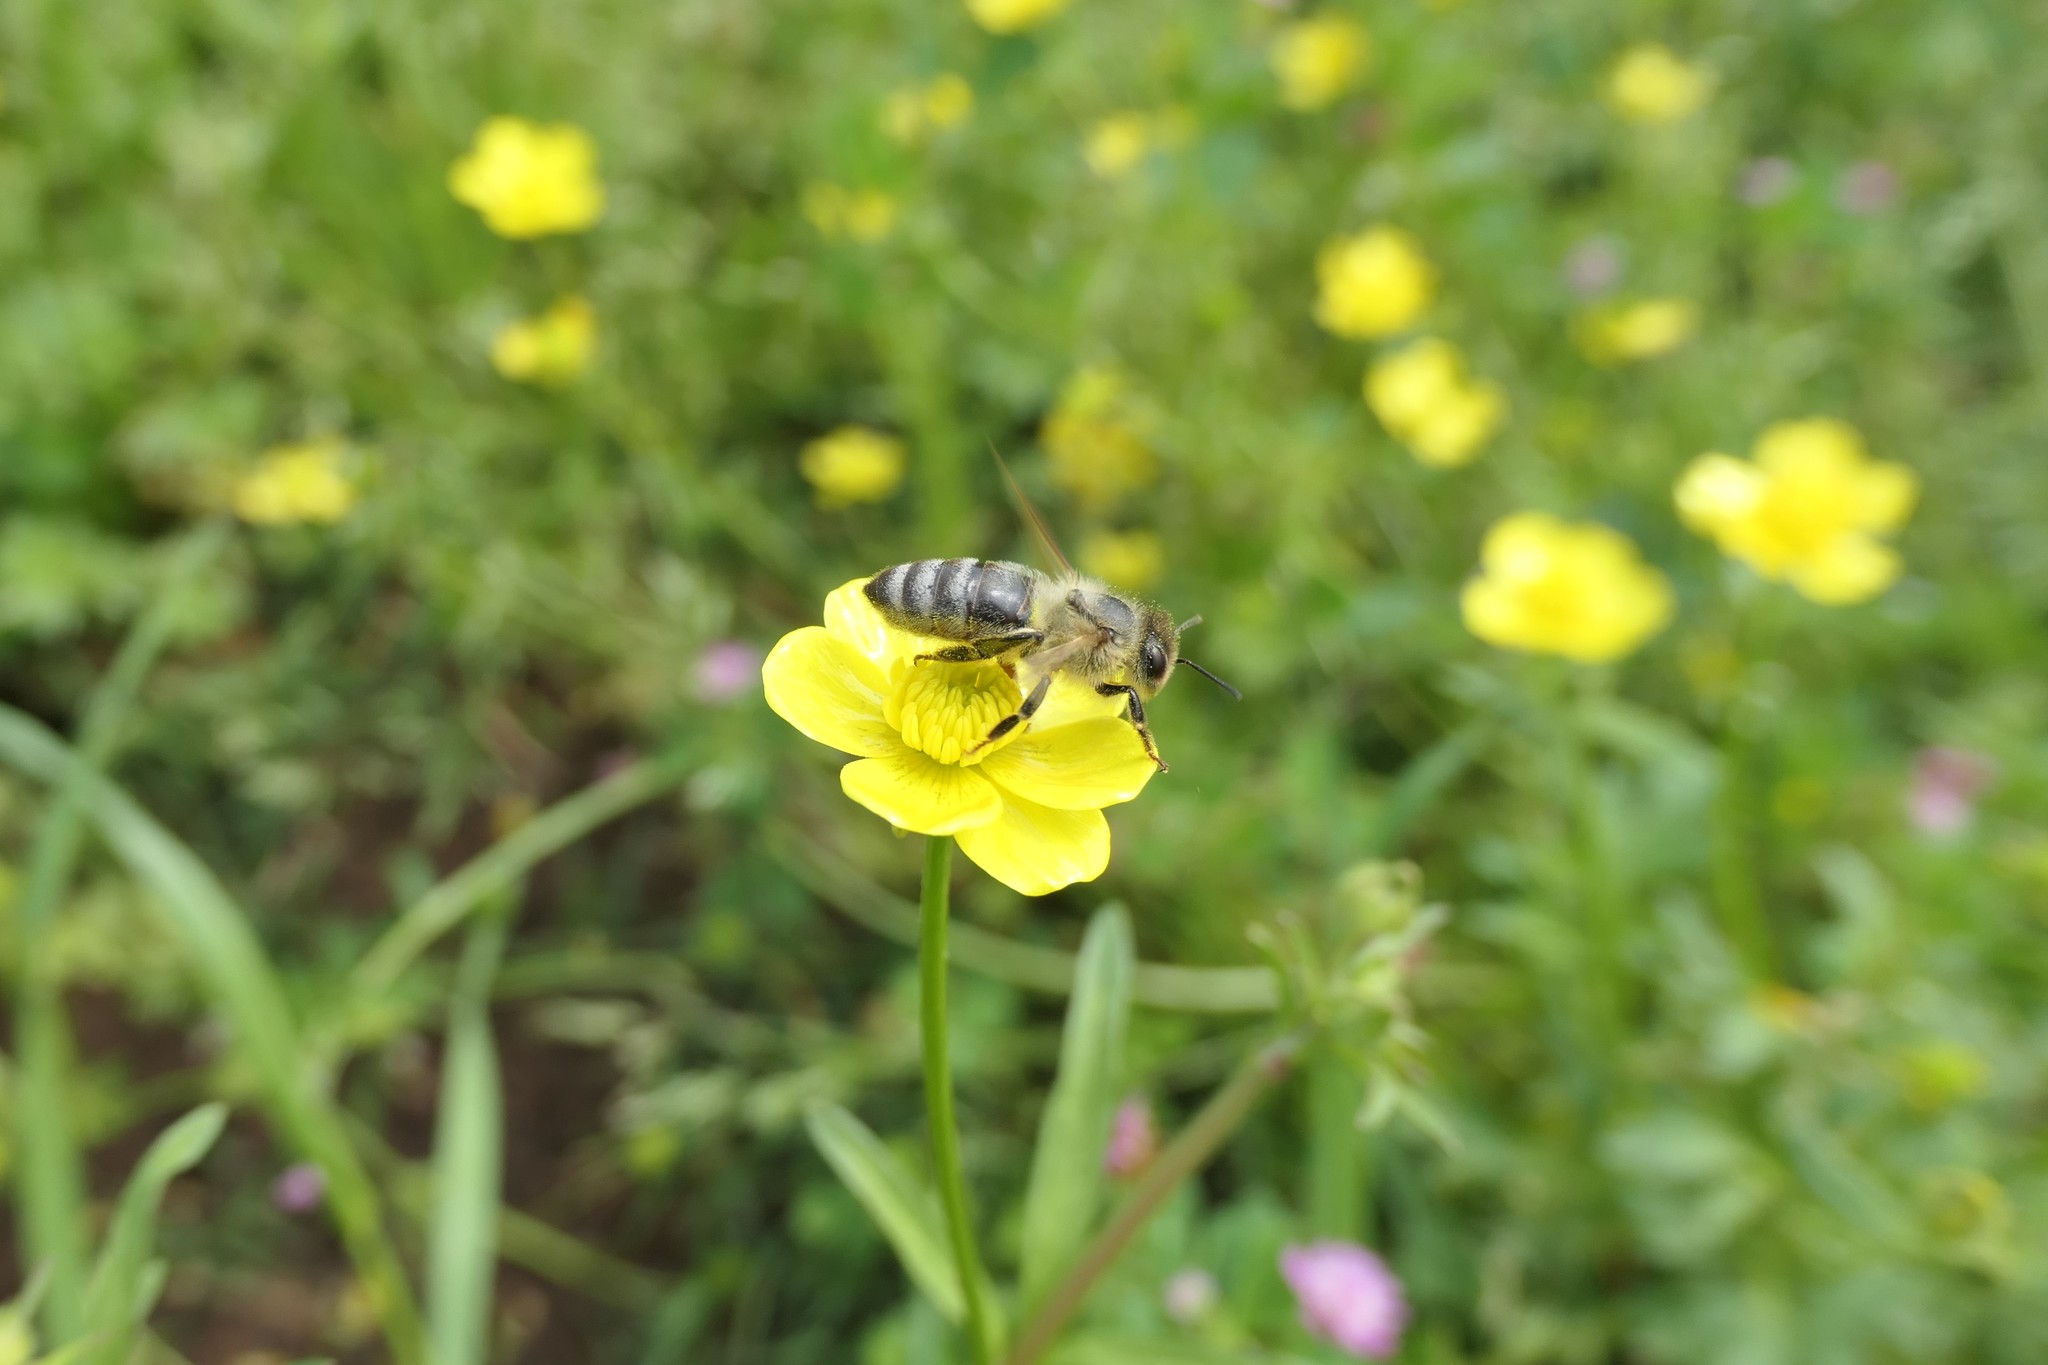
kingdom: Animalia
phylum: Arthropoda
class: Insecta
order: Hymenoptera
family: Apidae
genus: Apis
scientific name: Apis mellifera
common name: Honey bee
